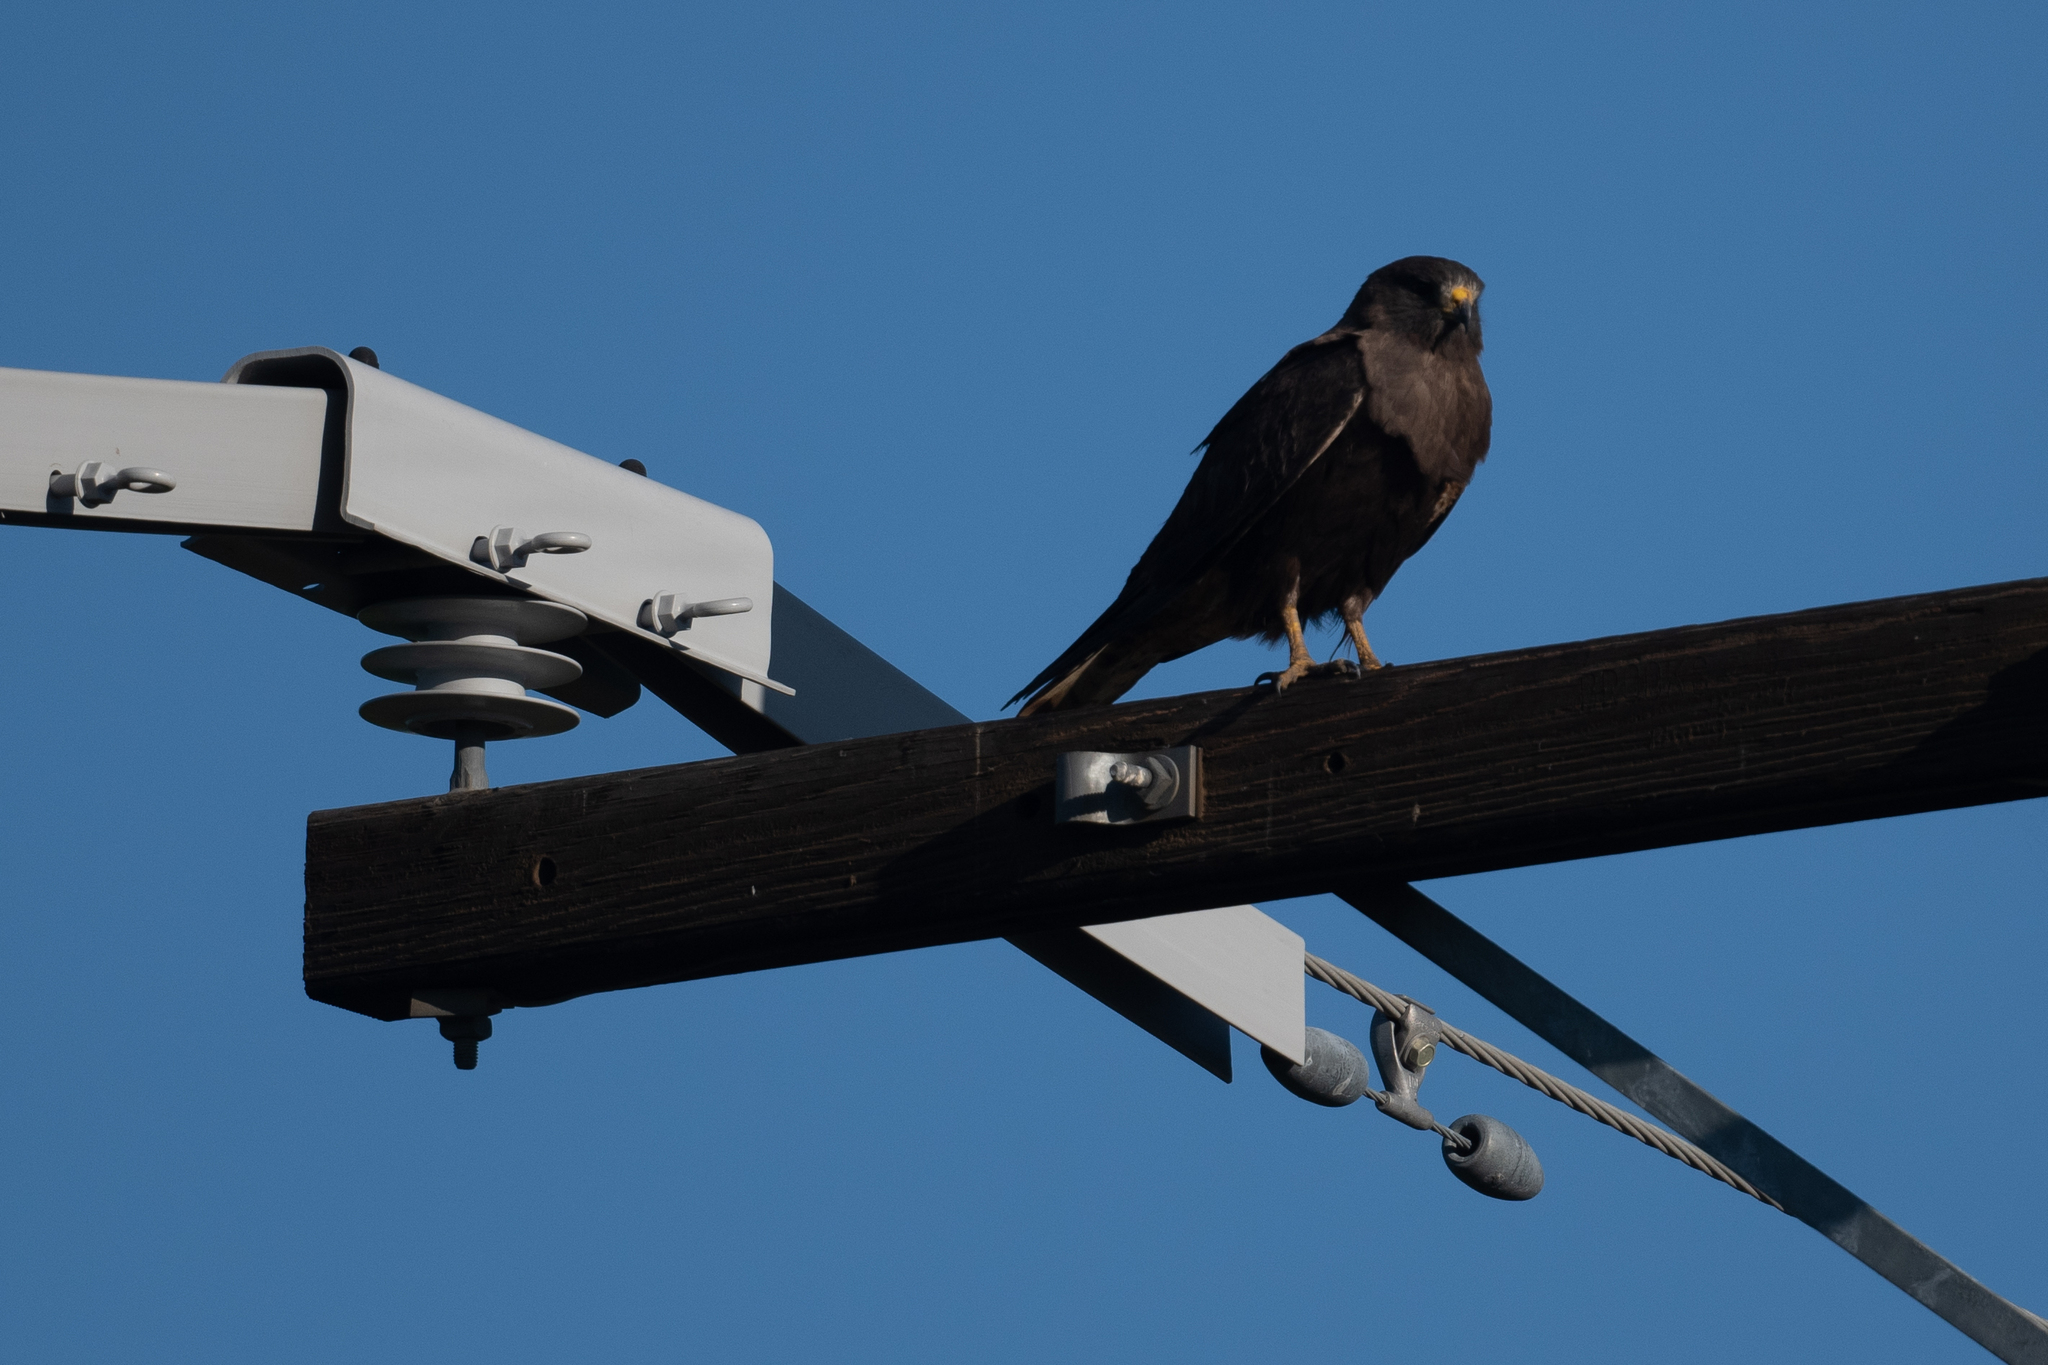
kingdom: Animalia
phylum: Chordata
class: Aves
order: Accipitriformes
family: Accipitridae
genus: Buteo
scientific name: Buteo swainsoni
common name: Swainson's hawk
